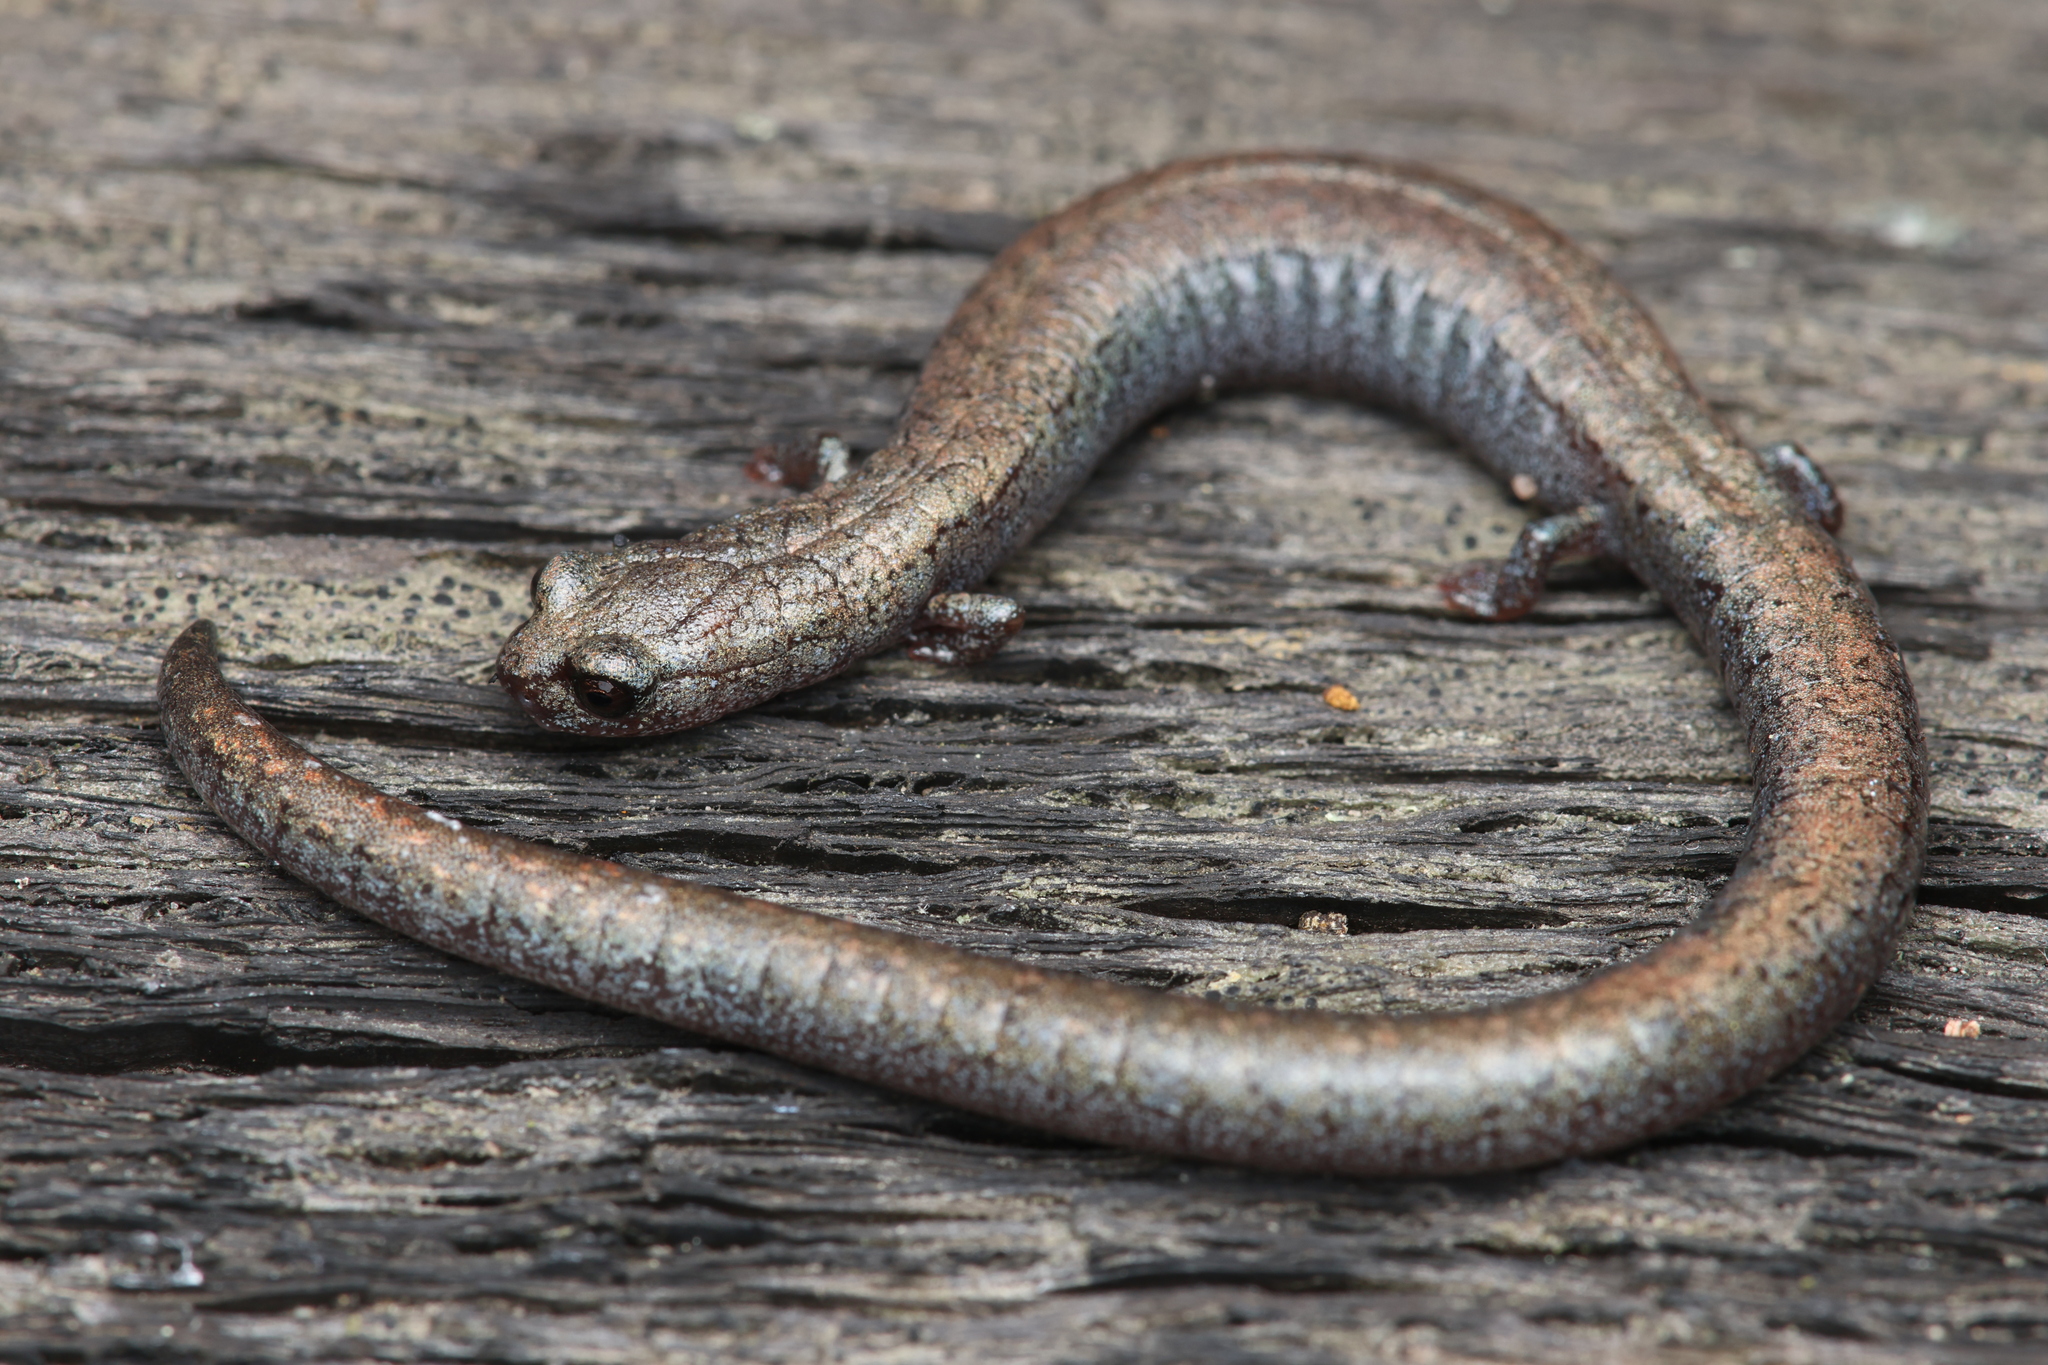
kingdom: Animalia
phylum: Chordata
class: Amphibia
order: Caudata
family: Plethodontidae
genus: Batrachoseps
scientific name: Batrachoseps nigriventris
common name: Black-bellied slender salamander
